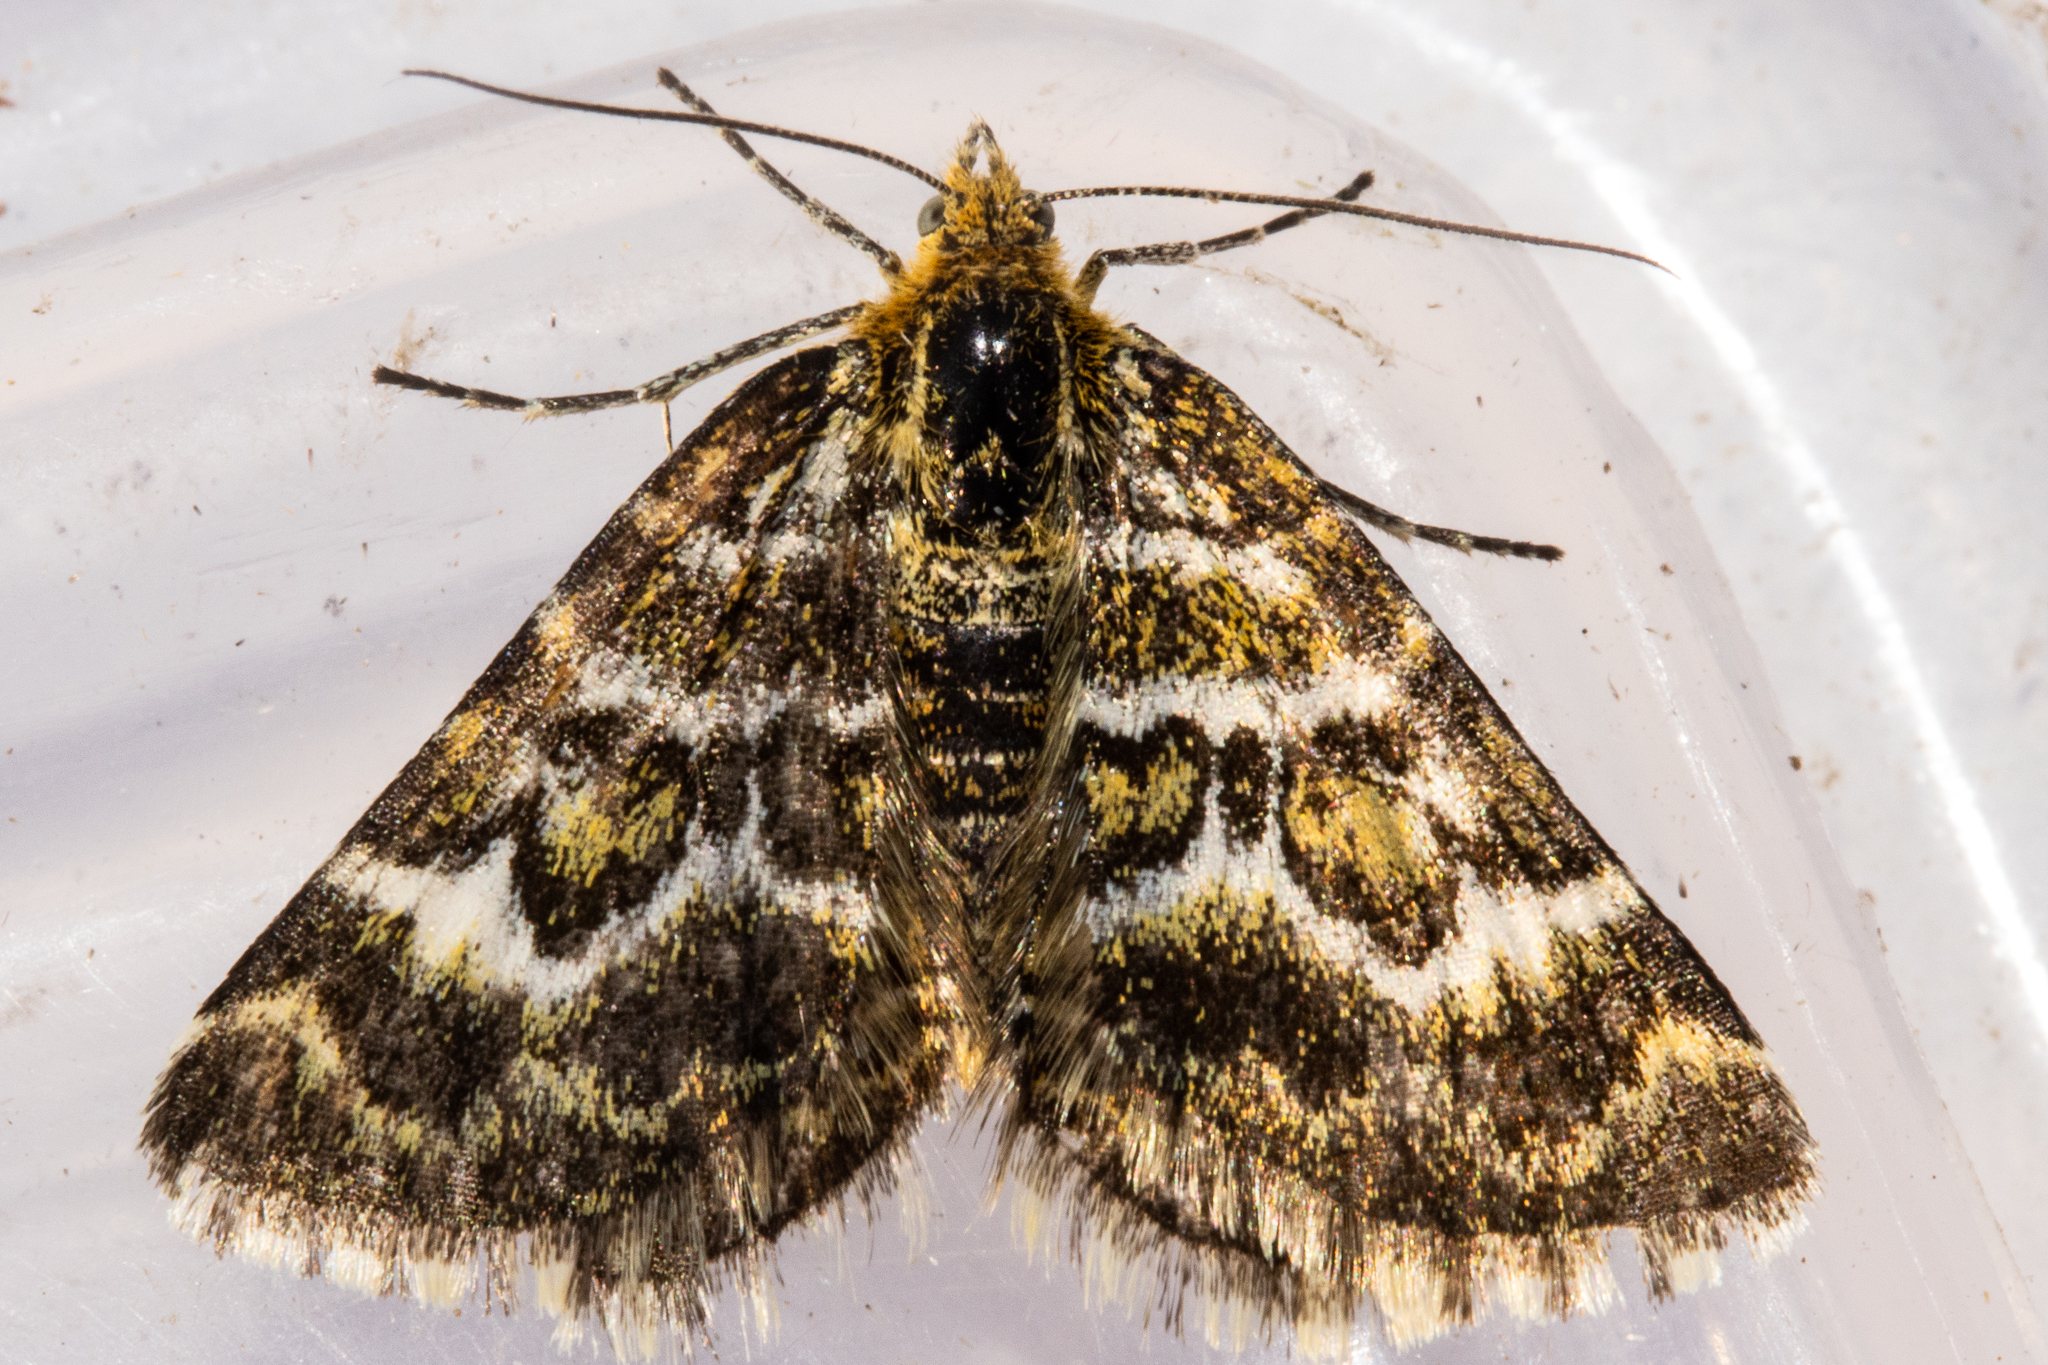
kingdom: Animalia
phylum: Arthropoda
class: Insecta
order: Lepidoptera
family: Geometridae
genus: Notoreas
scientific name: Notoreas paradelpha
